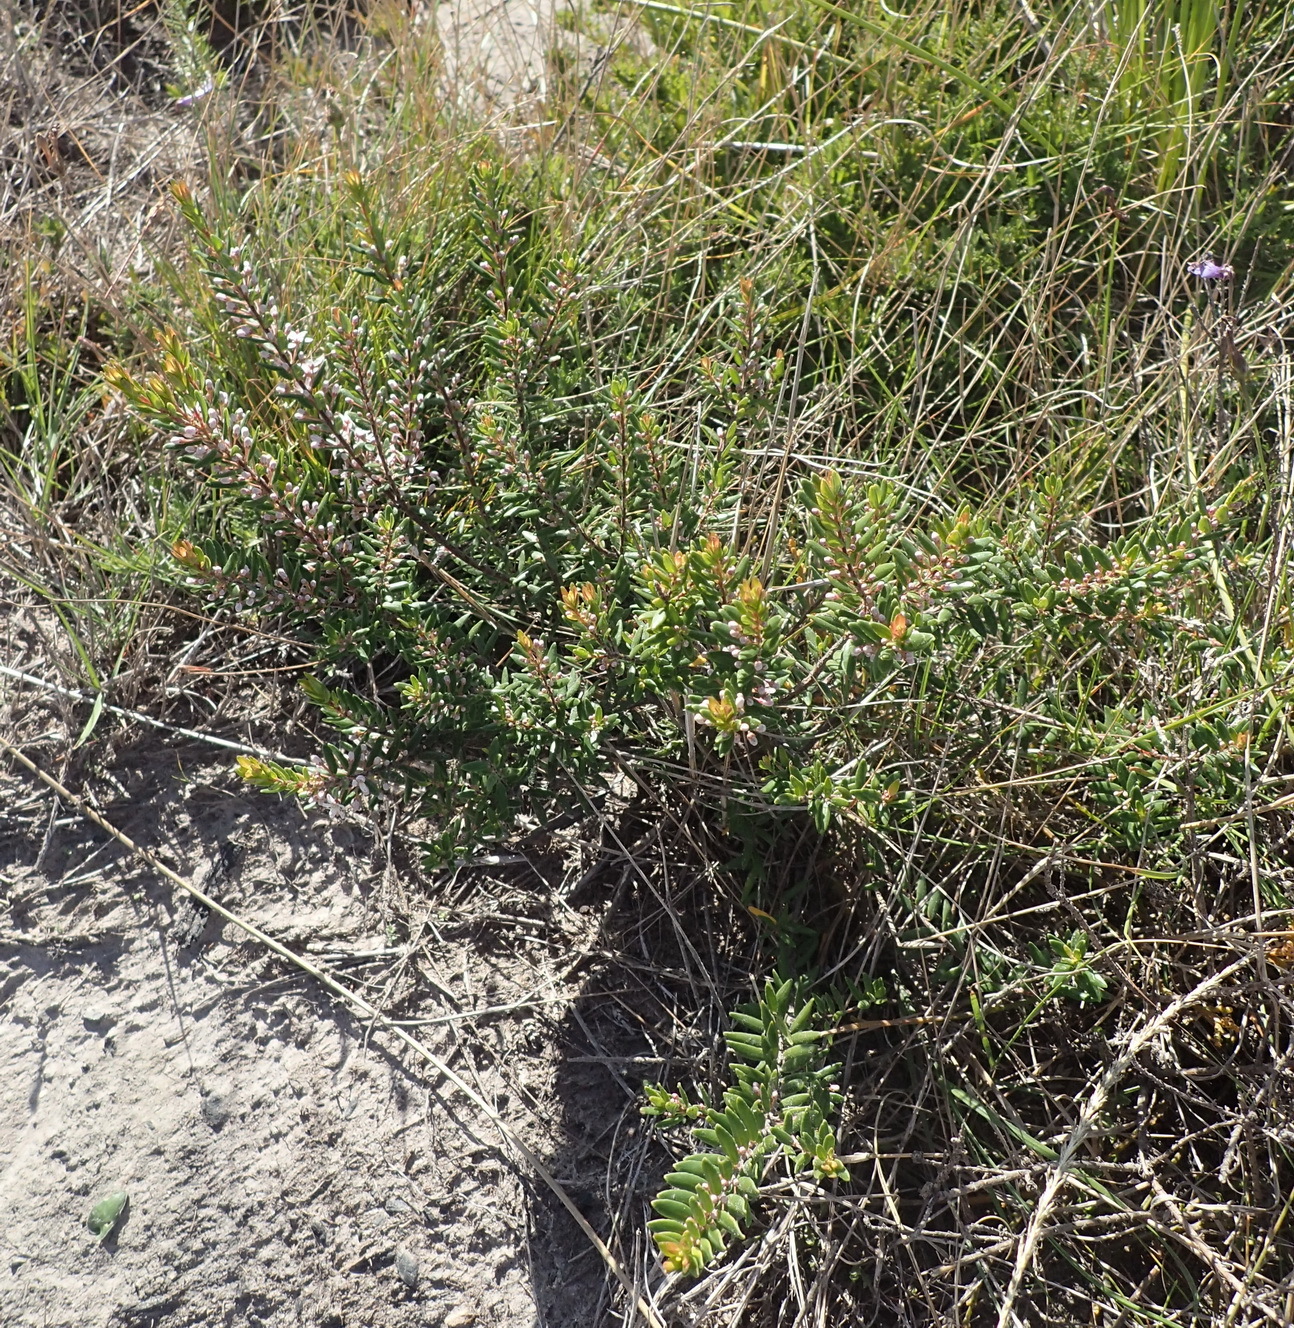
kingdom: Plantae
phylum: Tracheophyta
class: Magnoliopsida
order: Sapindales
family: Rutaceae
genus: Agathosma
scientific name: Agathosma ovata
